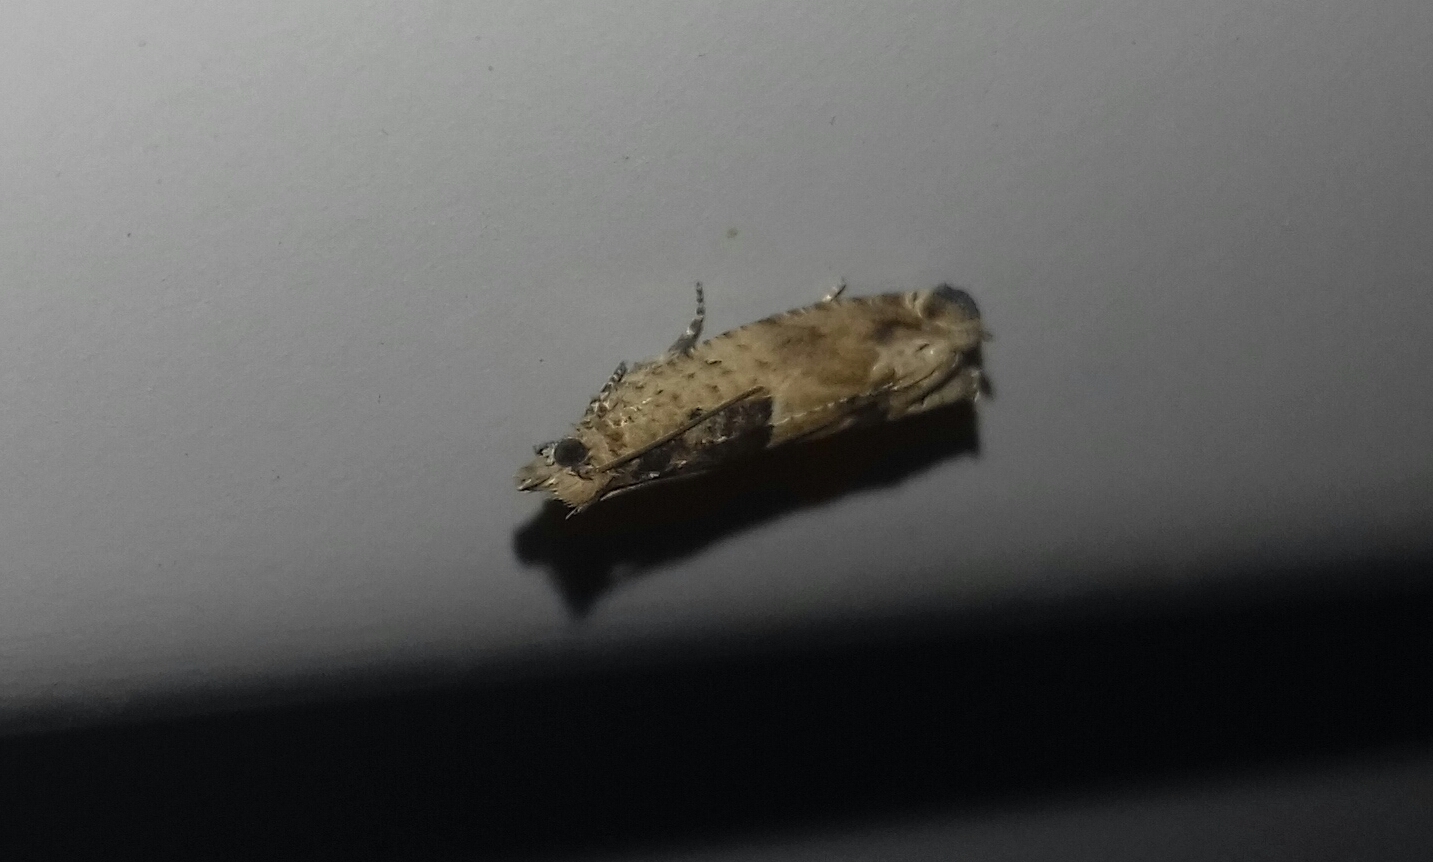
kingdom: Animalia
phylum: Arthropoda
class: Insecta
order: Lepidoptera
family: Tortricidae
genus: Crocidosema
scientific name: Crocidosema plebejana
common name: Southern bell
